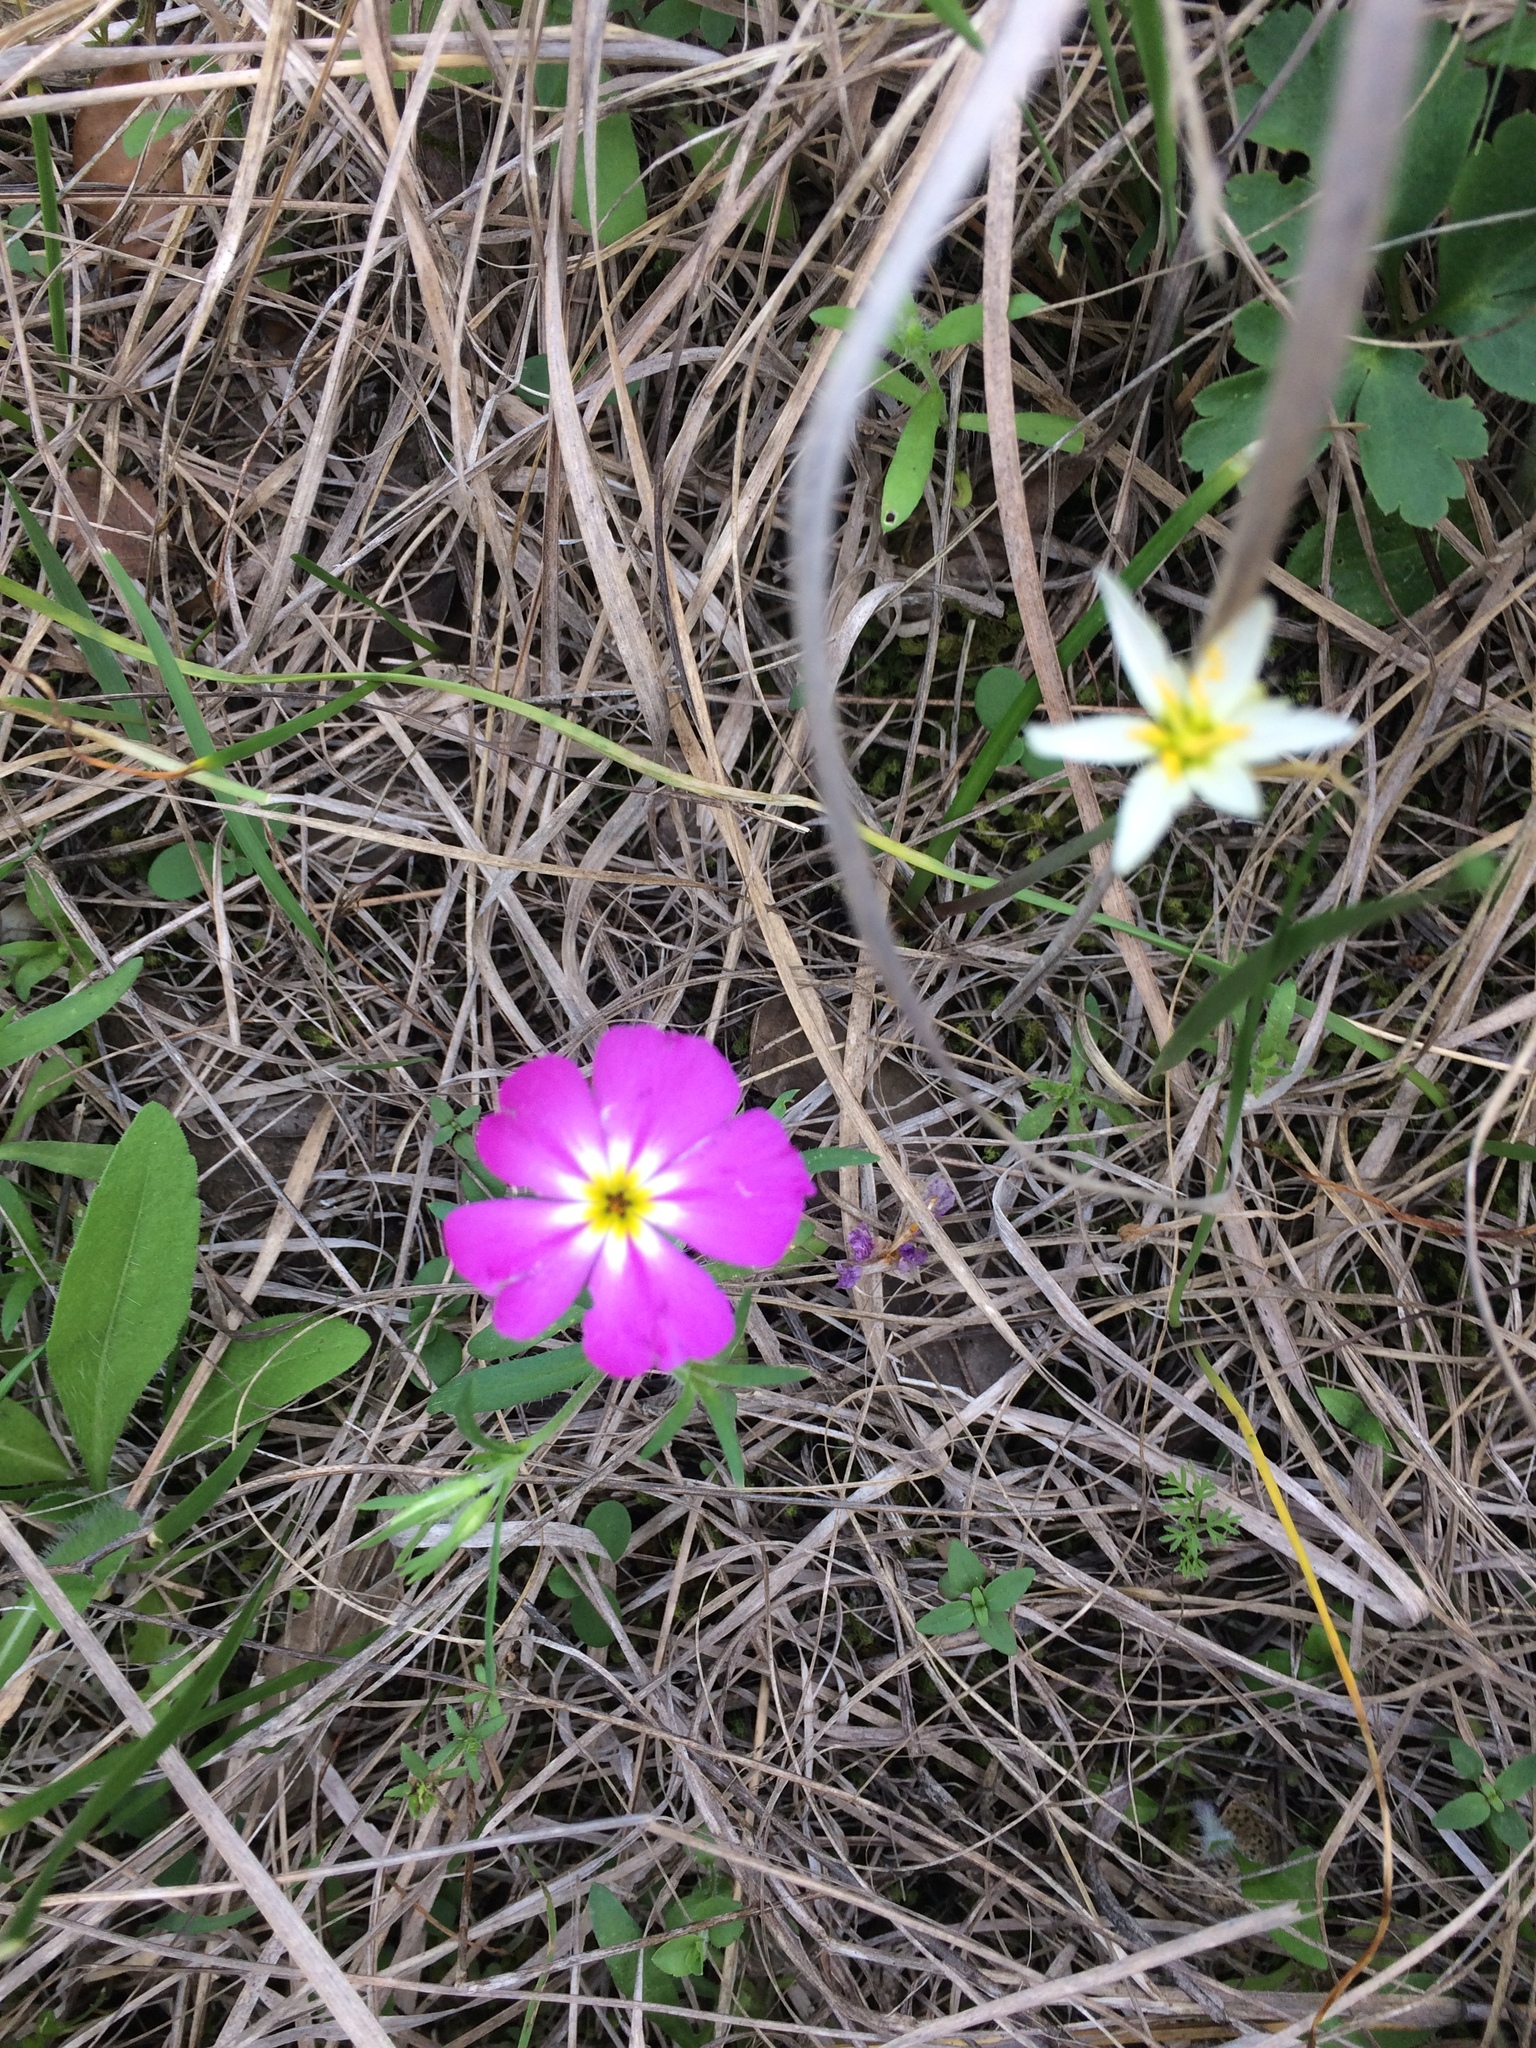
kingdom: Plantae
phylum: Tracheophyta
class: Magnoliopsida
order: Ericales
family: Polemoniaceae
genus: Phlox
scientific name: Phlox roemeriana
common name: Roemer's phlox
